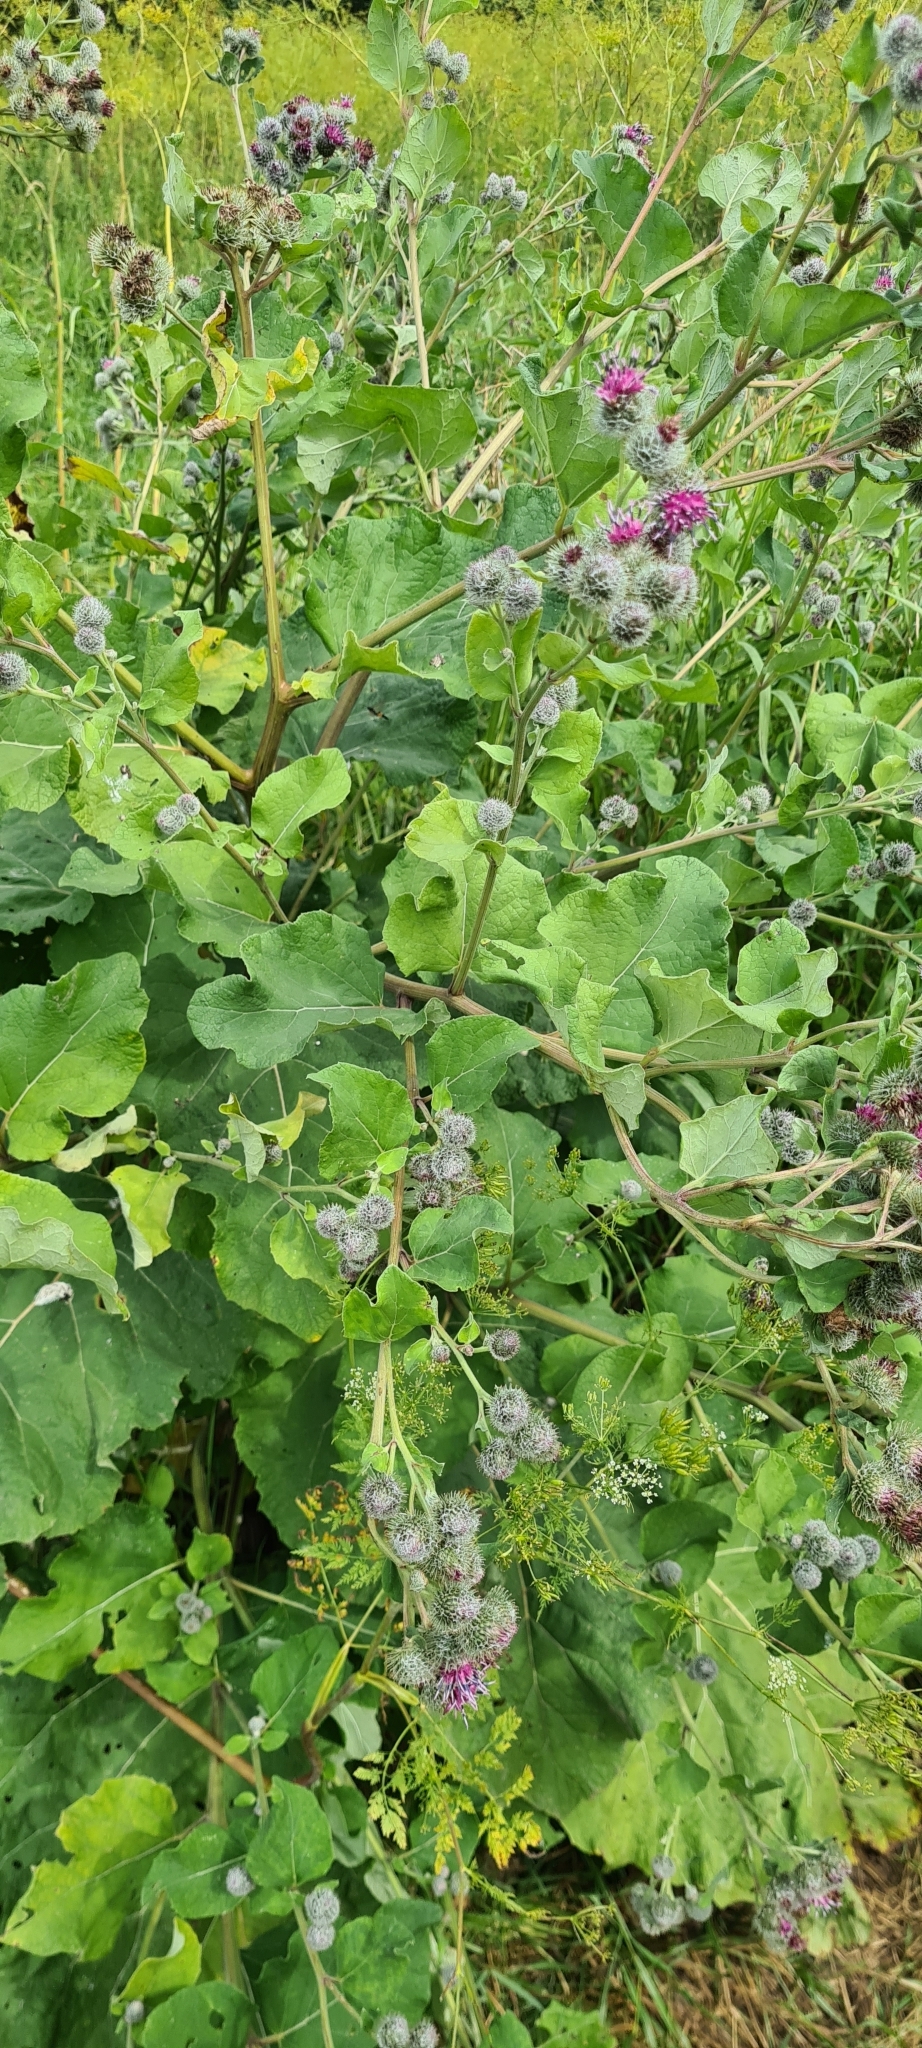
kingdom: Plantae
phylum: Tracheophyta
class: Magnoliopsida
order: Asterales
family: Asteraceae
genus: Arctium
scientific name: Arctium tomentosum
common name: Woolly burdock
